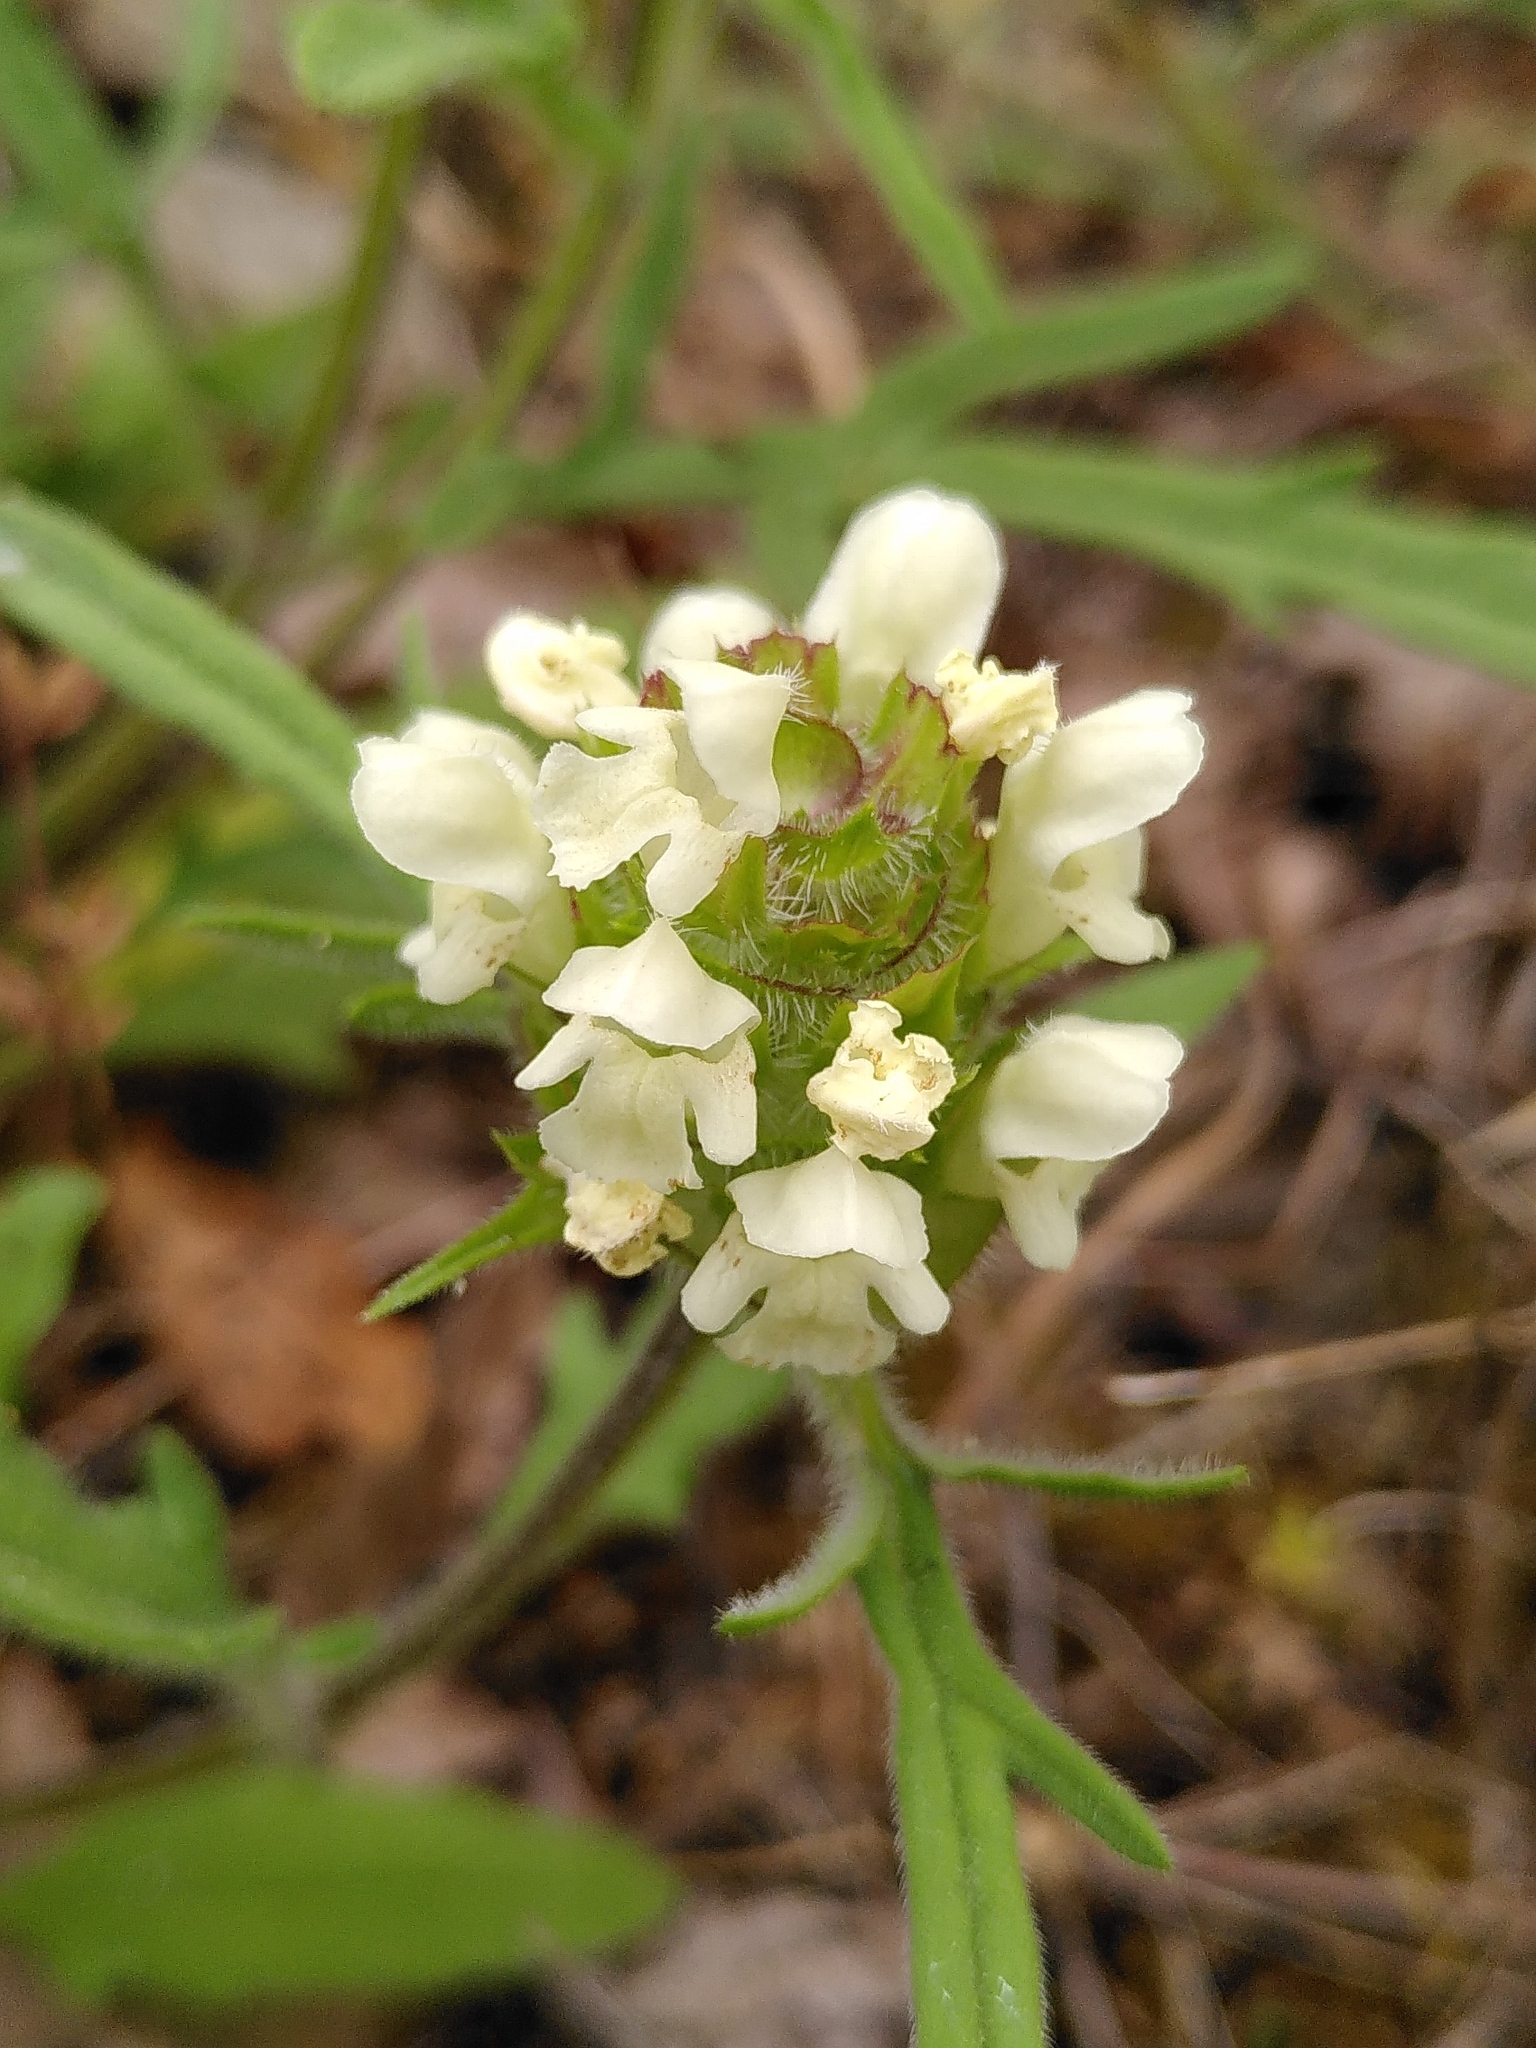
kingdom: Plantae
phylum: Tracheophyta
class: Magnoliopsida
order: Lamiales
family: Lamiaceae
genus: Prunella
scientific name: Prunella laciniata
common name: Cut-leaved selfheal
